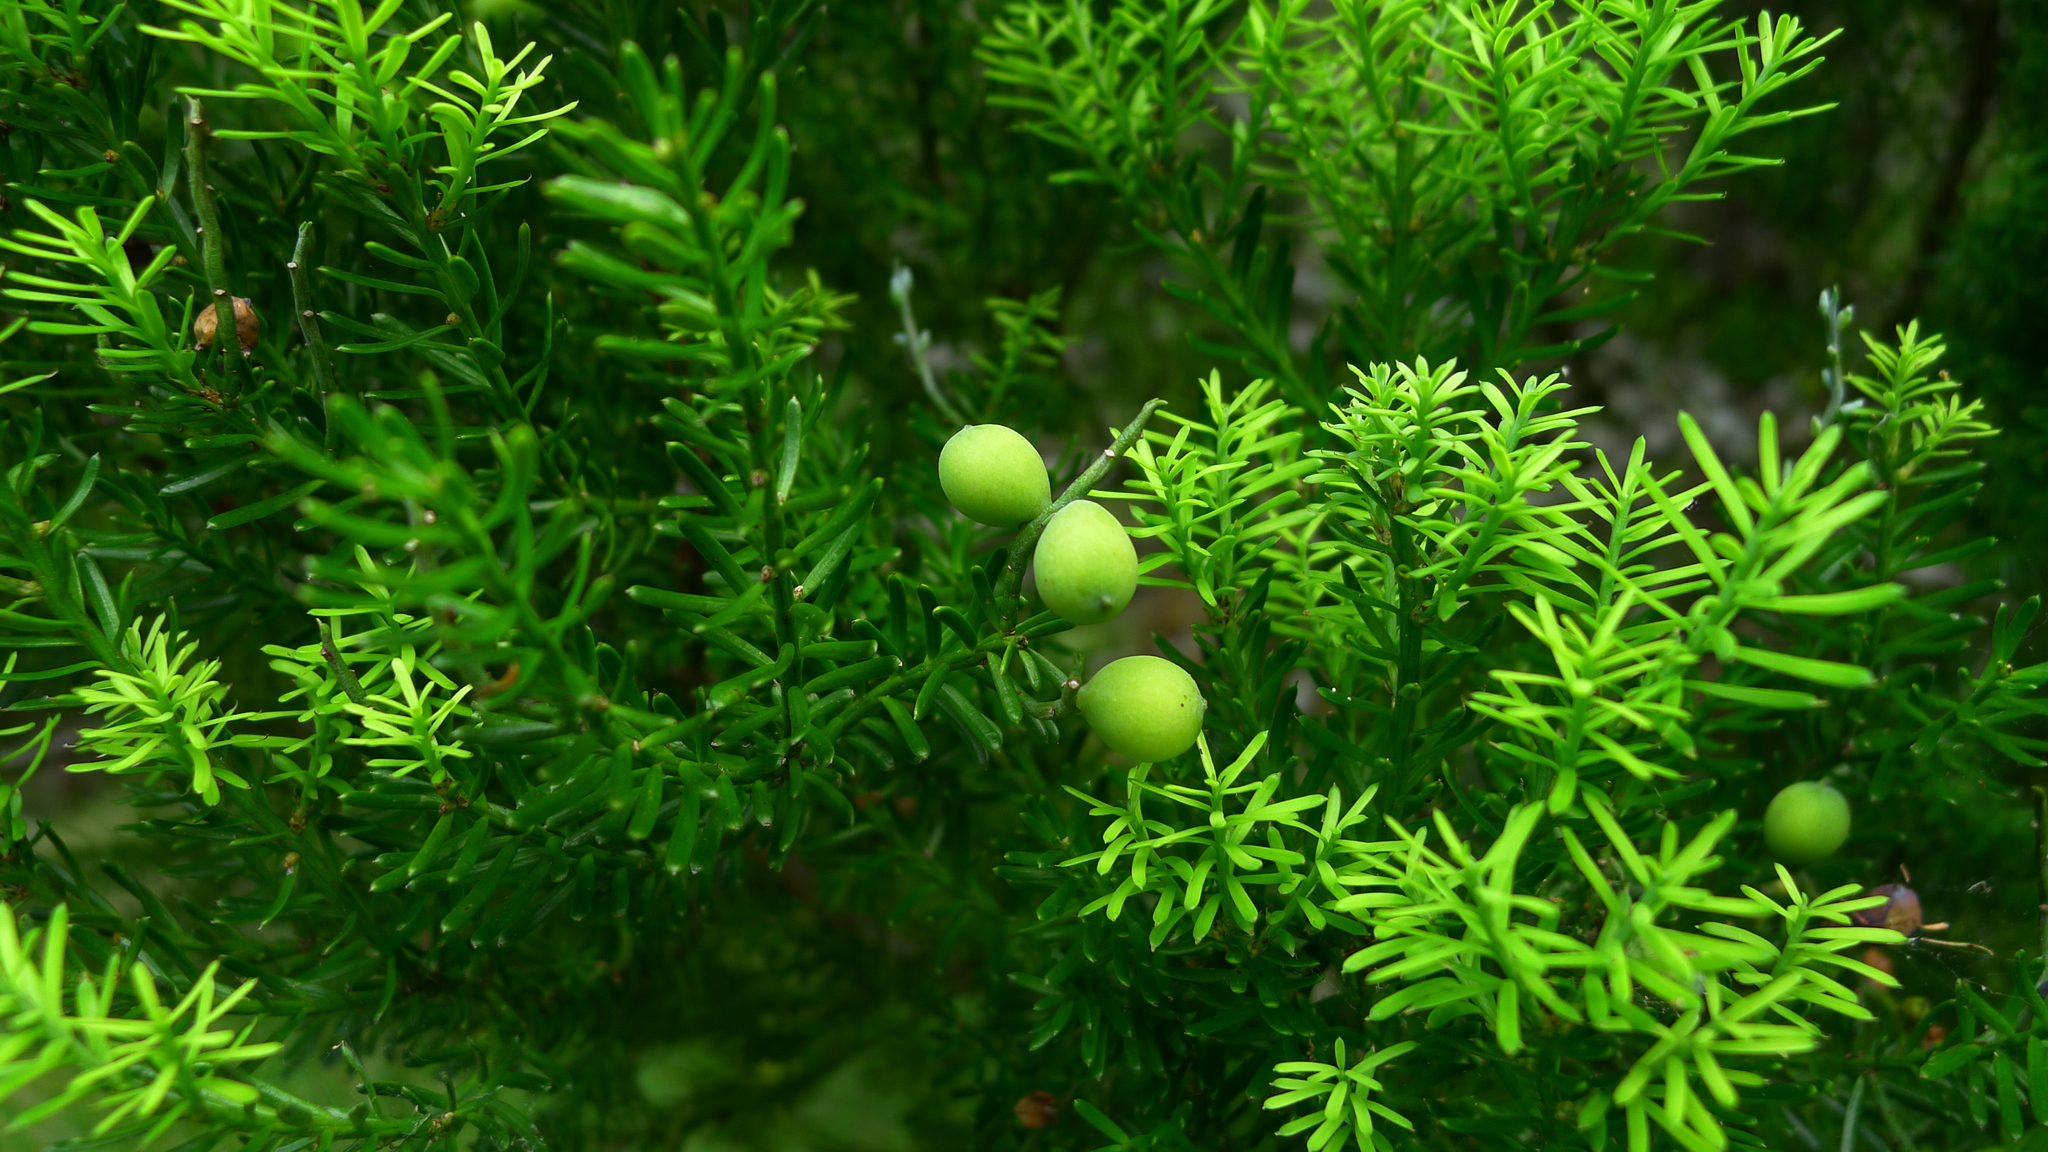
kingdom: Plantae
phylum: Tracheophyta
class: Pinopsida
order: Pinales
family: Podocarpaceae
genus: Prumnopitys
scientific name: Prumnopitys taxifolia
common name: Matai
